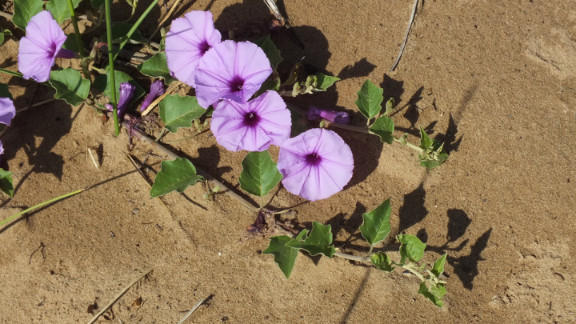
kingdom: Plantae
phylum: Tracheophyta
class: Magnoliopsida
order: Solanales
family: Convolvulaceae
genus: Astripomoea
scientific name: Astripomoea malvacea
